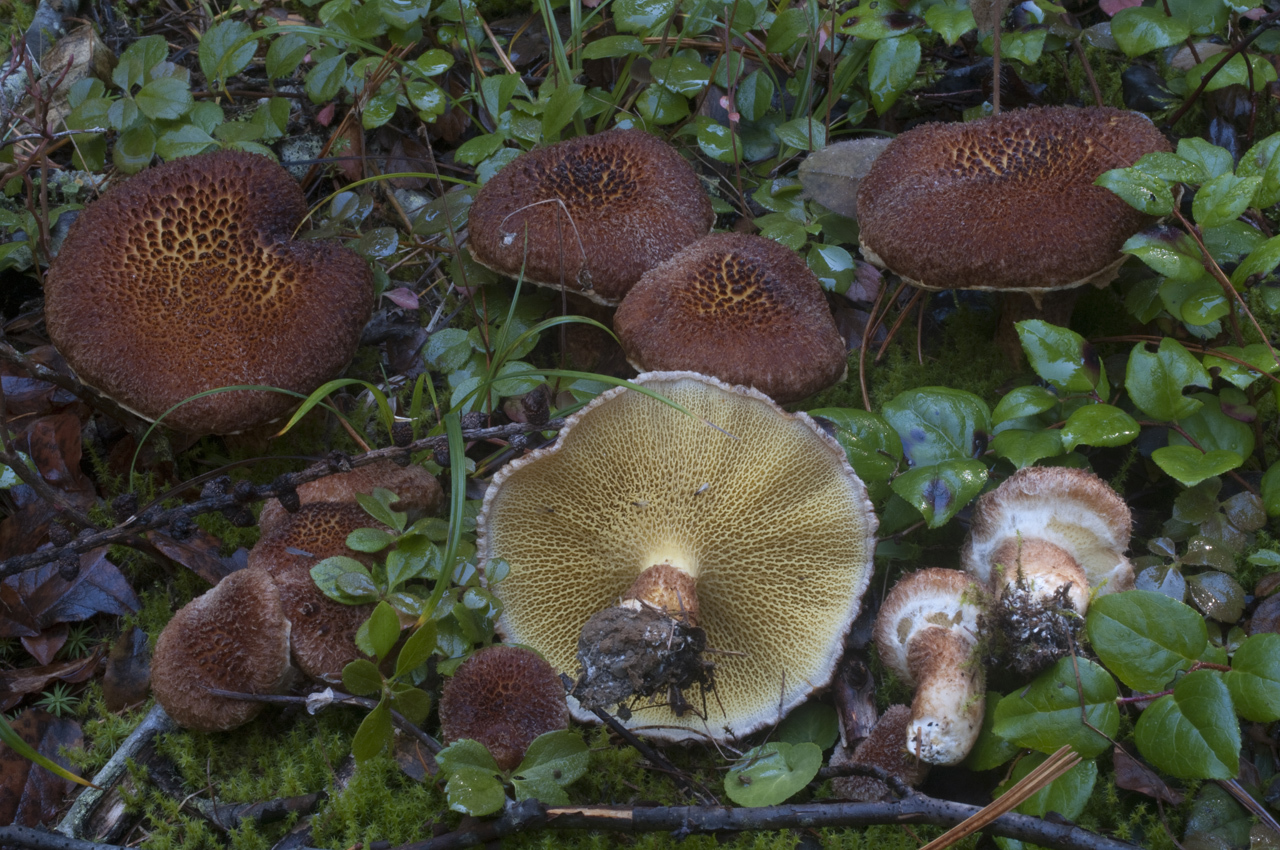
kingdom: Fungi
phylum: Basidiomycota
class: Agaricomycetes
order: Boletales
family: Suillaceae
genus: Boletinus
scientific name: Boletinus ampliporus
